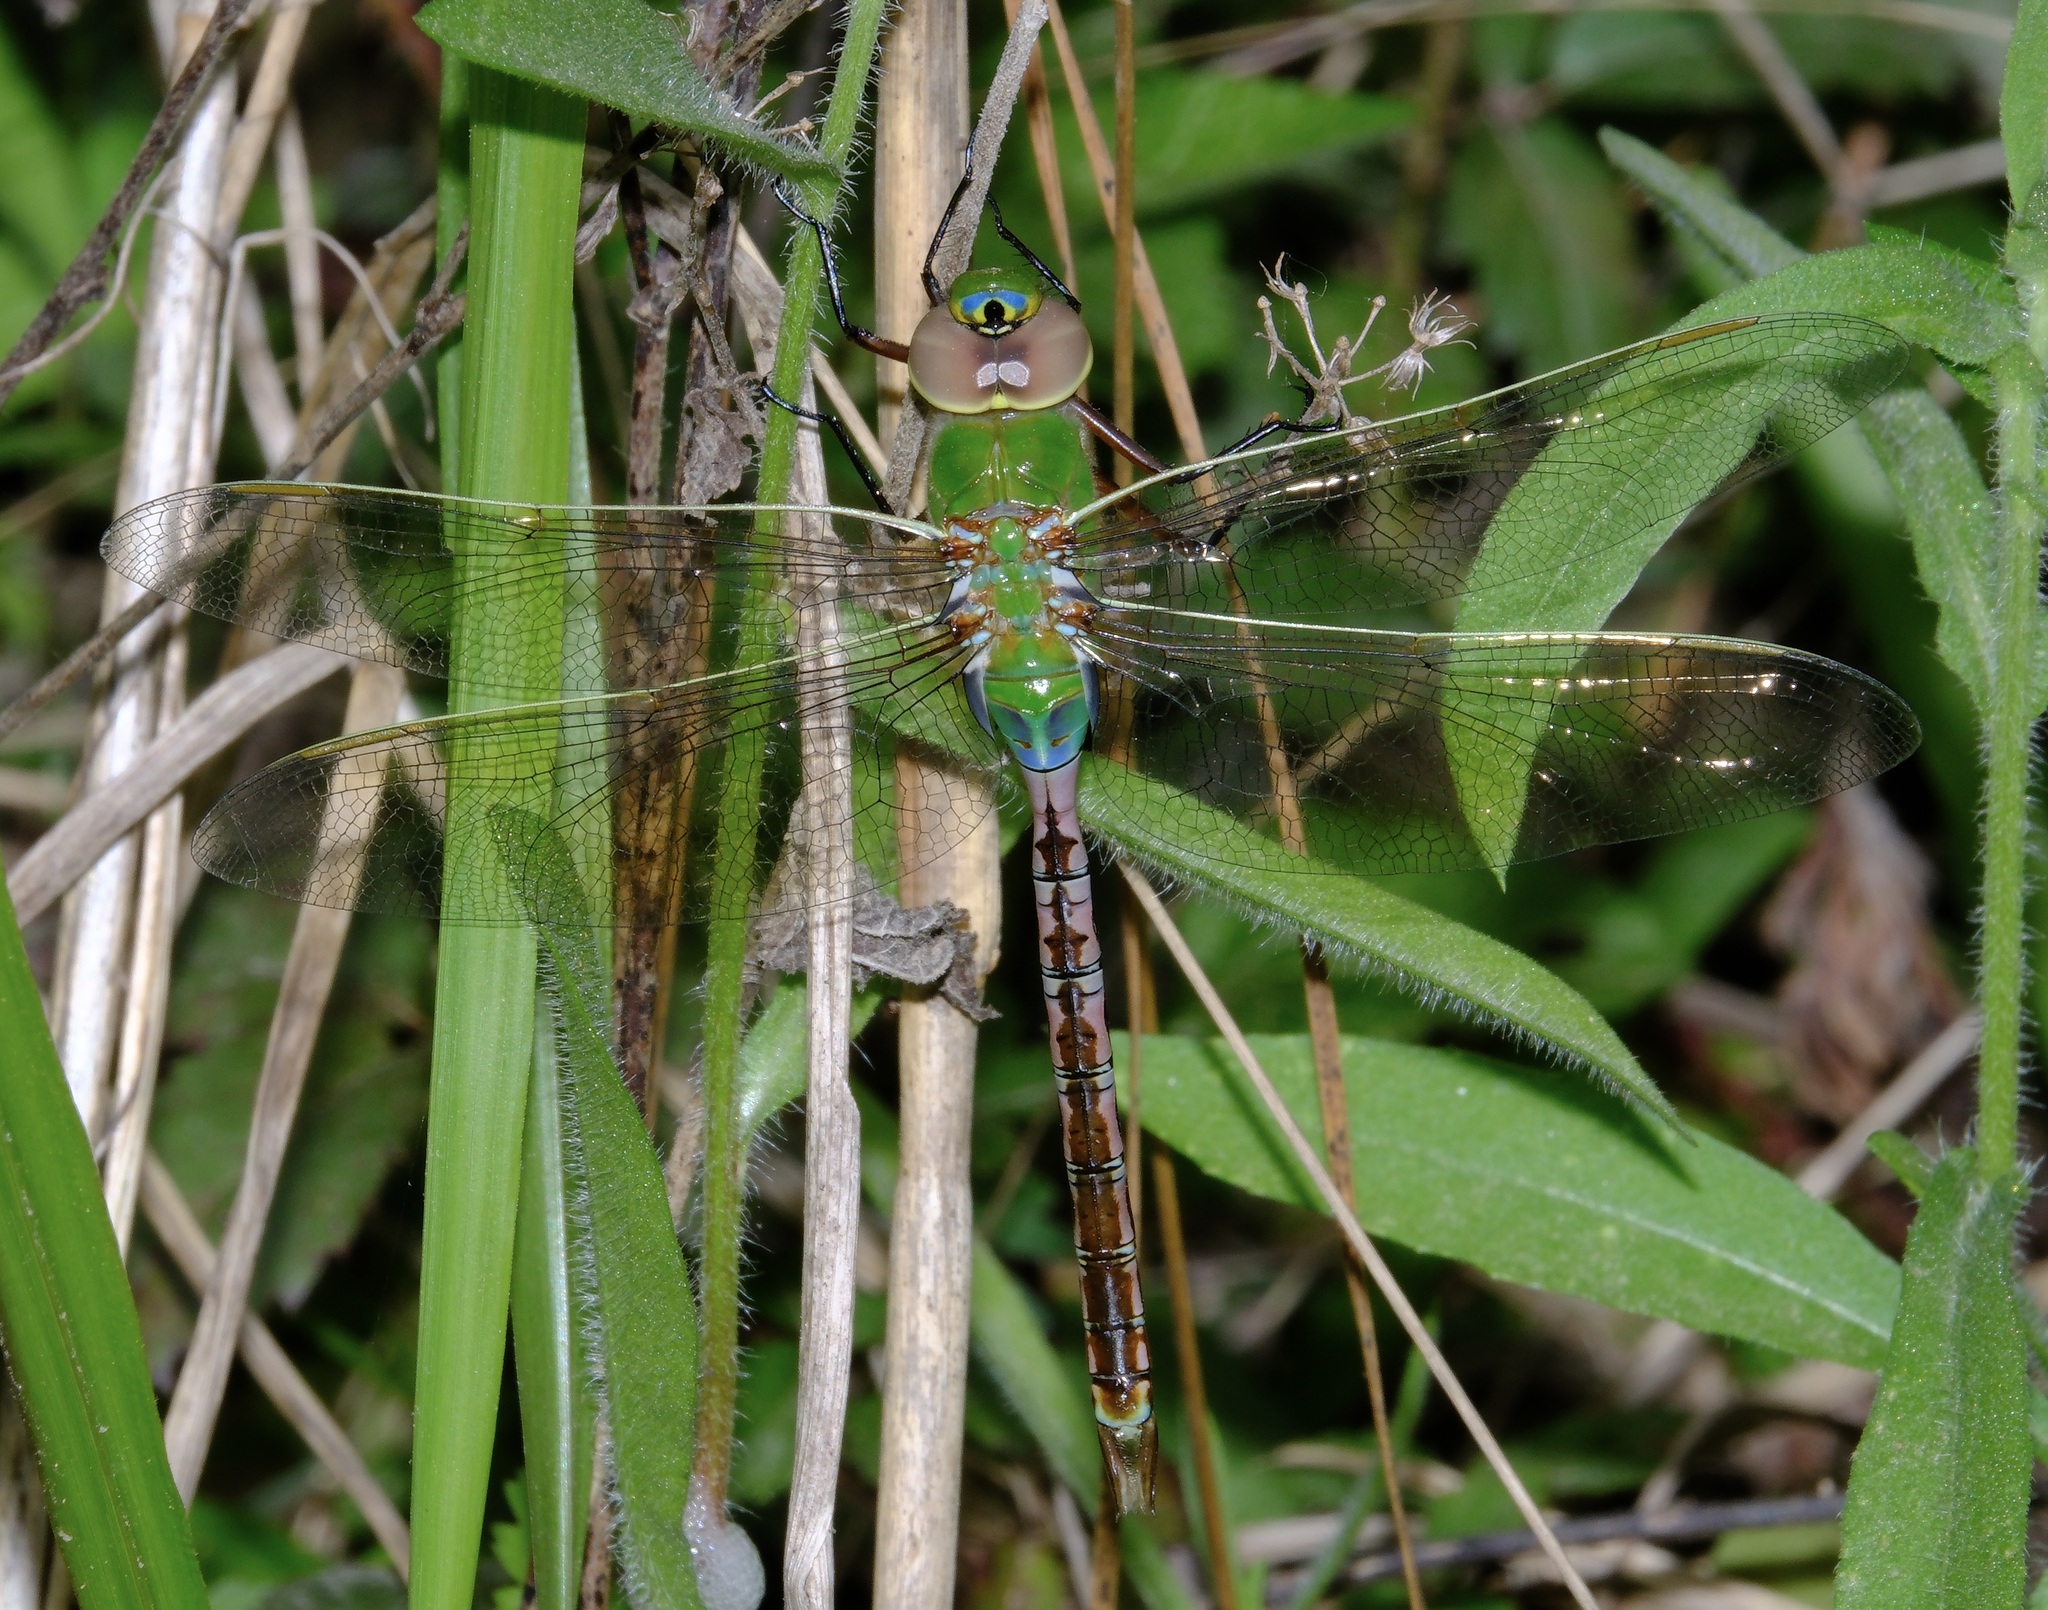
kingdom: Animalia
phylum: Arthropoda
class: Insecta
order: Odonata
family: Aeshnidae
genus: Anax
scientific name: Anax junius
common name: Common green darner
